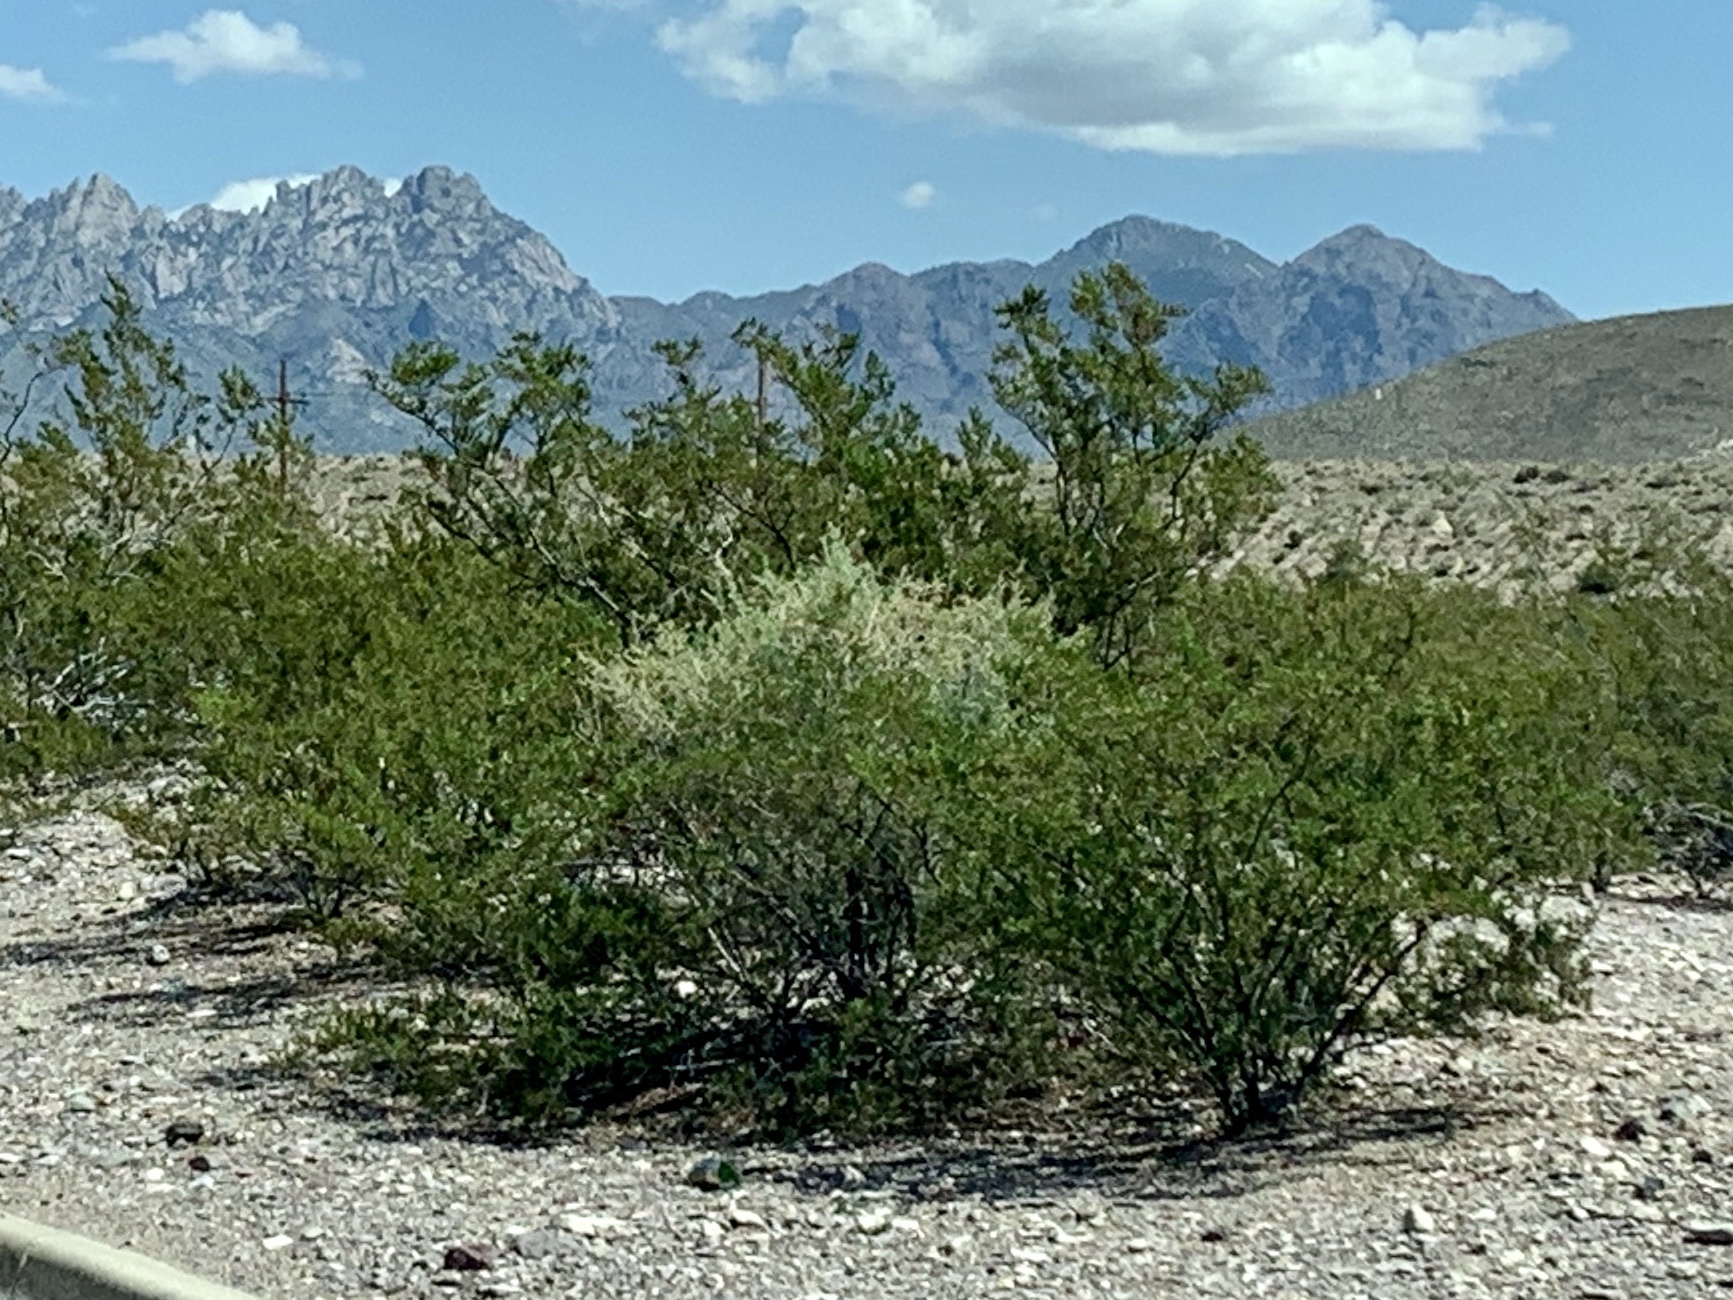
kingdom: Plantae
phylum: Tracheophyta
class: Magnoliopsida
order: Zygophyllales
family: Zygophyllaceae
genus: Larrea
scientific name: Larrea tridentata
